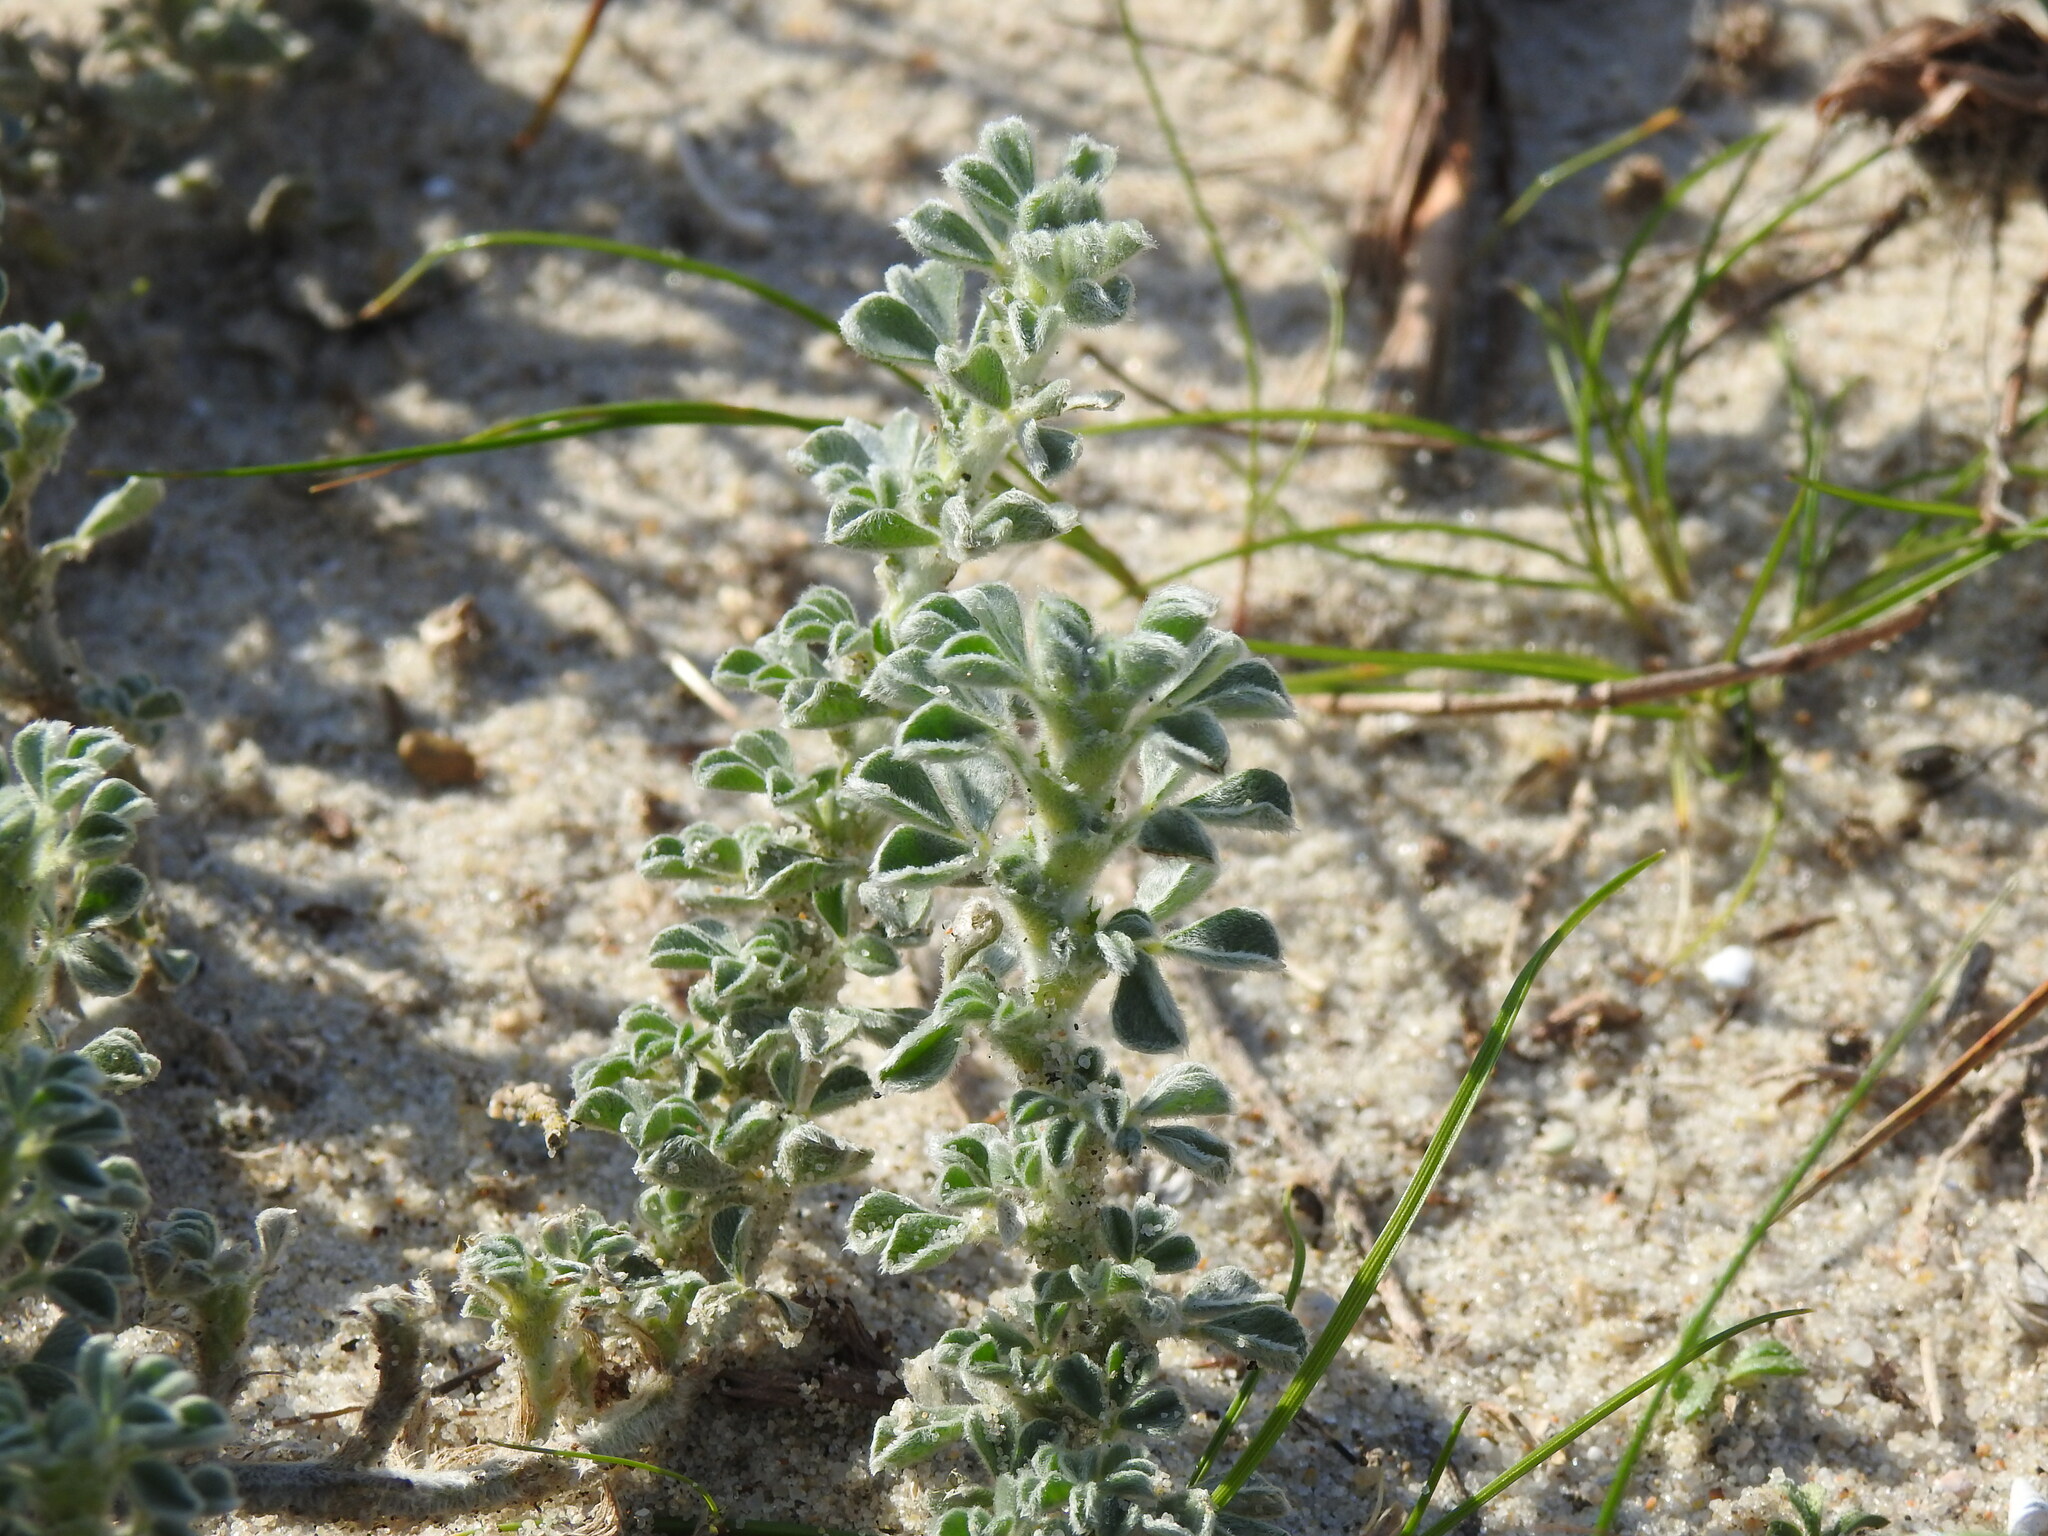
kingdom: Plantae
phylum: Tracheophyta
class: Magnoliopsida
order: Fabales
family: Fabaceae
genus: Medicago
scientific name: Medicago marina
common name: Sea medick
